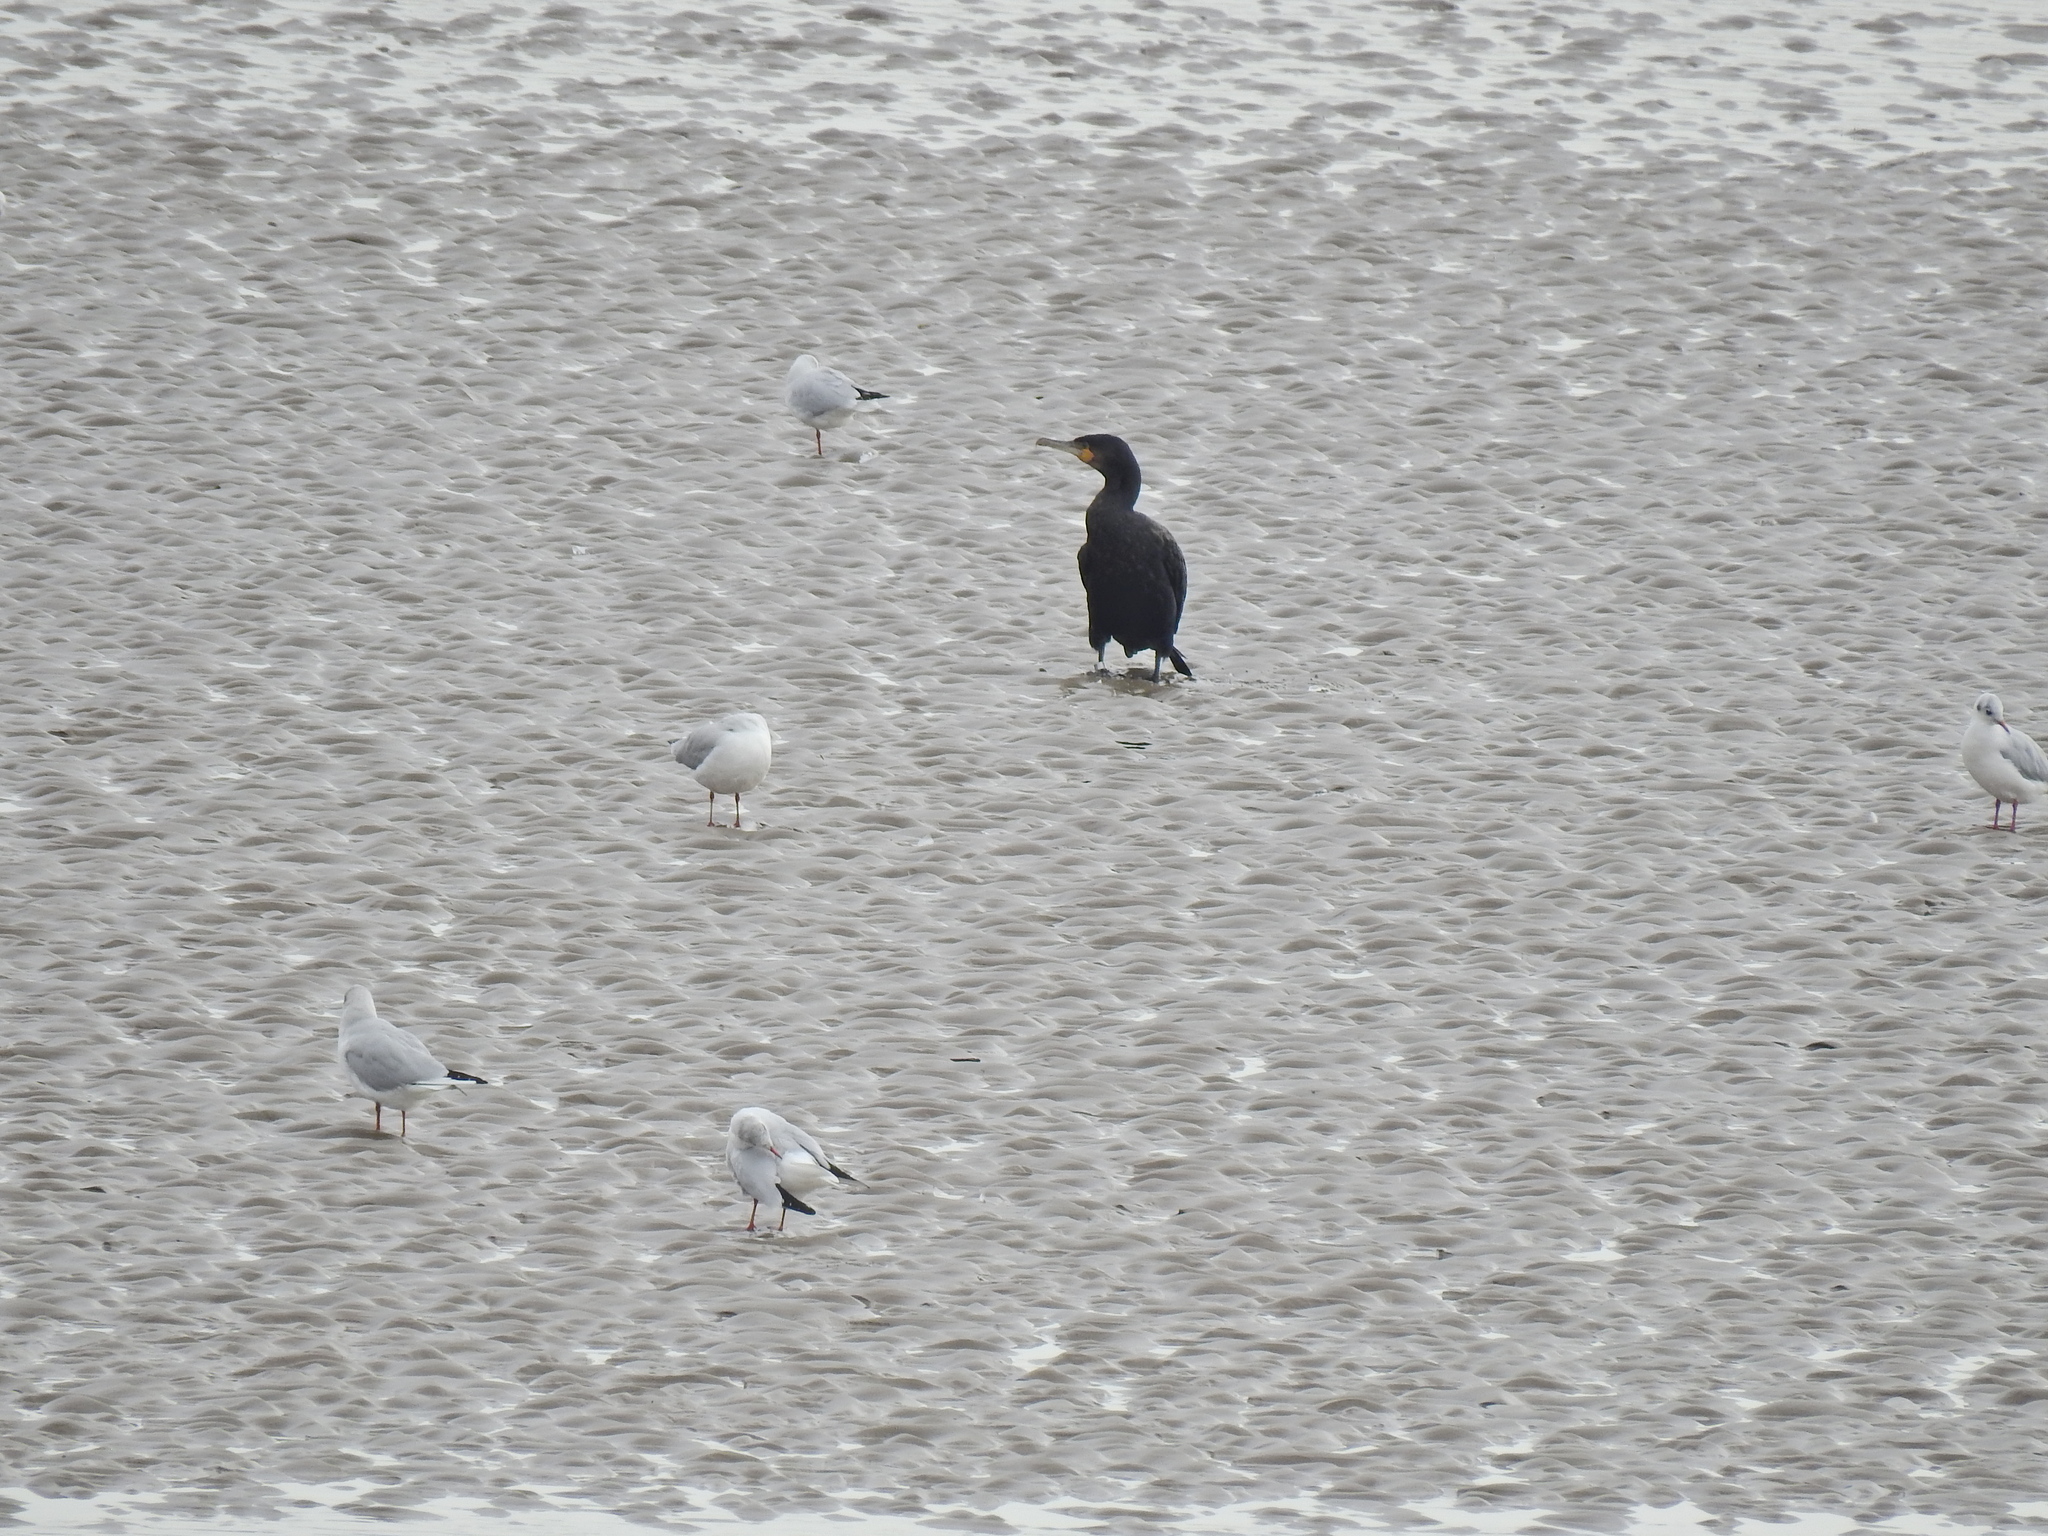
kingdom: Animalia
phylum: Chordata
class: Aves
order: Suliformes
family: Phalacrocoracidae
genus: Phalacrocorax
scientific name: Phalacrocorax carbo
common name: Great cormorant
